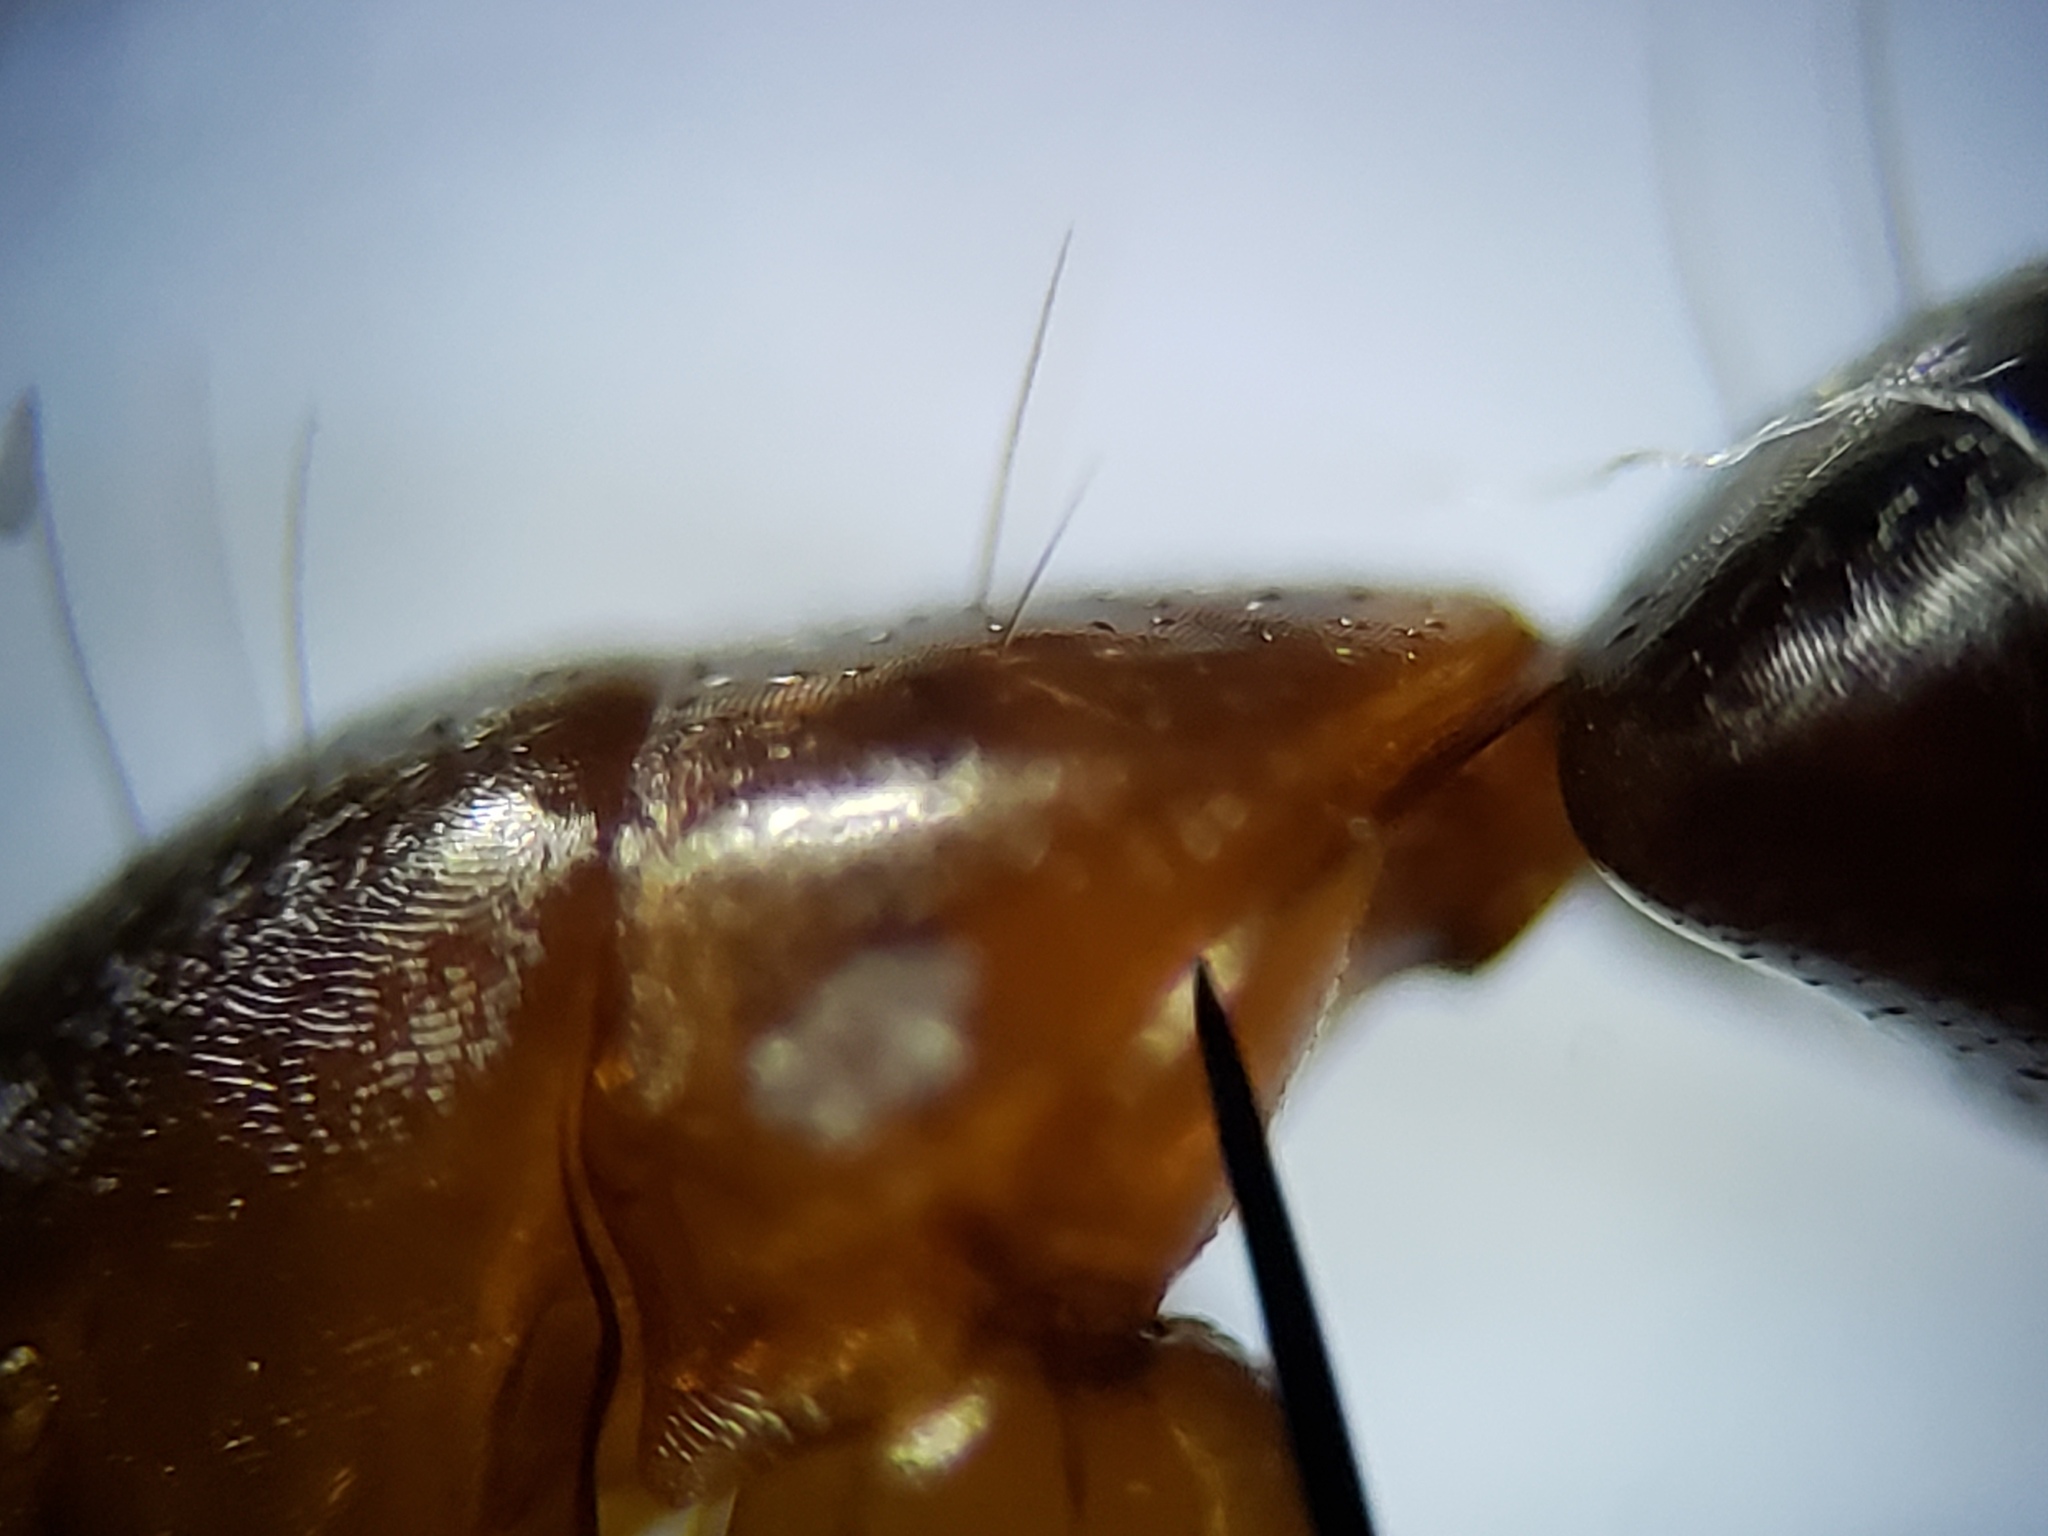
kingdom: Animalia
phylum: Arthropoda
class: Insecta
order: Hymenoptera
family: Formicidae
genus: Camponotus
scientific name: Camponotus castaneus
